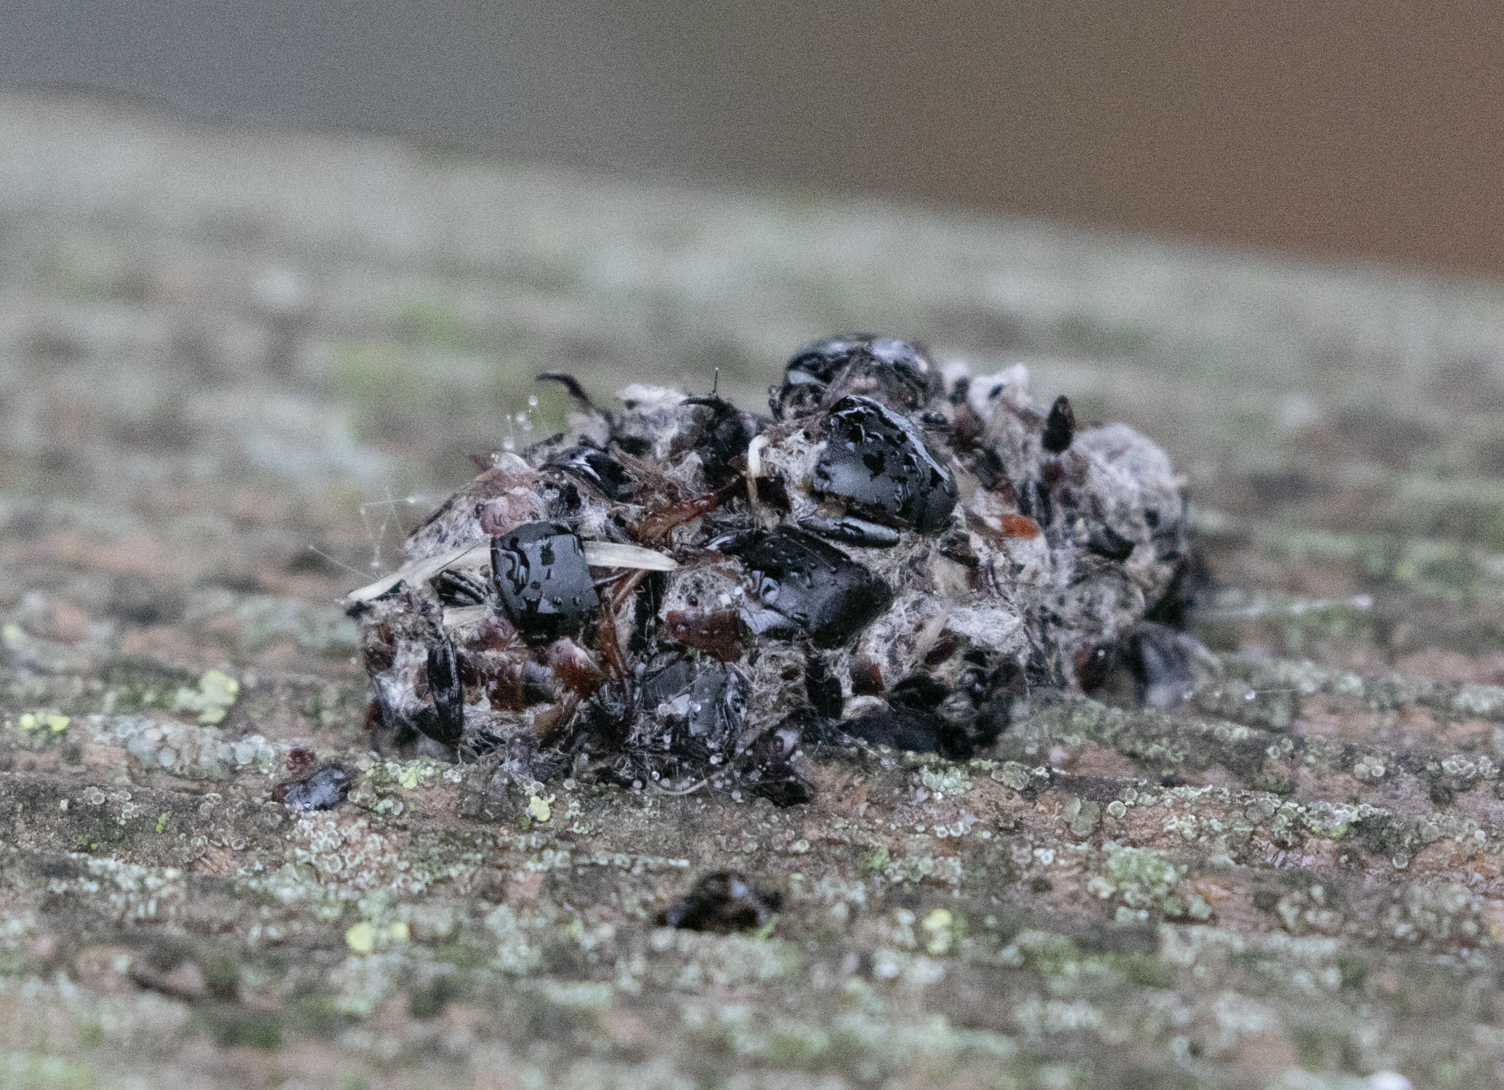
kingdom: Animalia
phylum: Chordata
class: Aves
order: Strigiformes
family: Strigidae
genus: Athene
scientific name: Athene noctua
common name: Little owl
